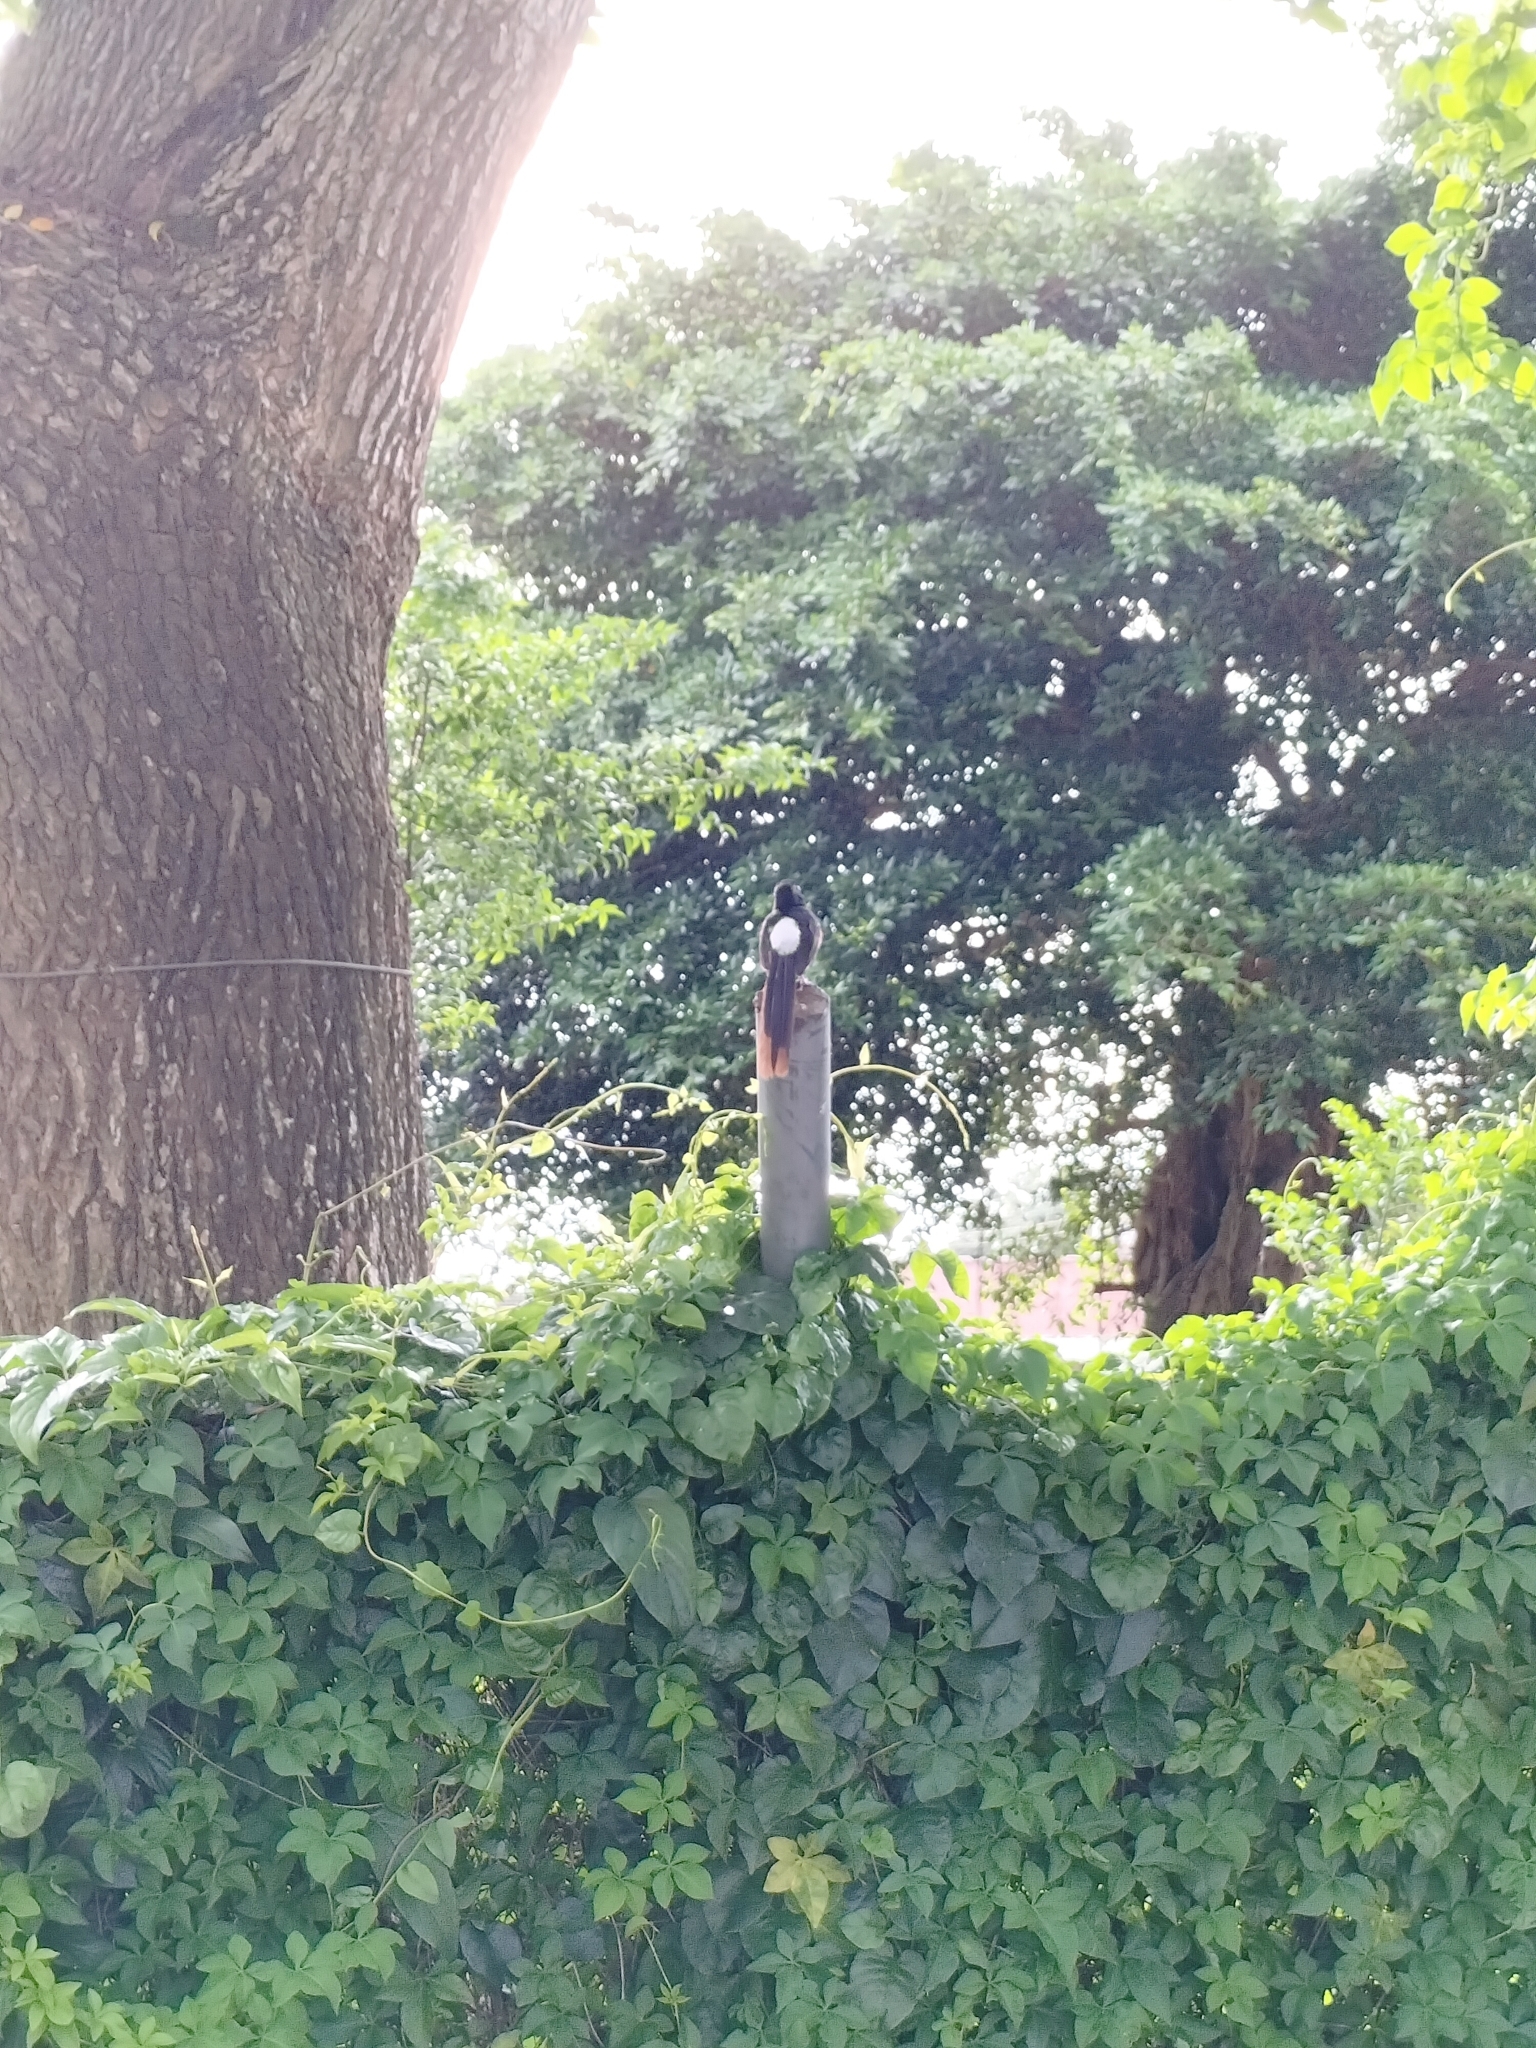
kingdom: Animalia
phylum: Chordata
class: Aves
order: Passeriformes
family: Muscicapidae
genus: Copsychus
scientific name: Copsychus malabaricus
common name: White-rumped shama
